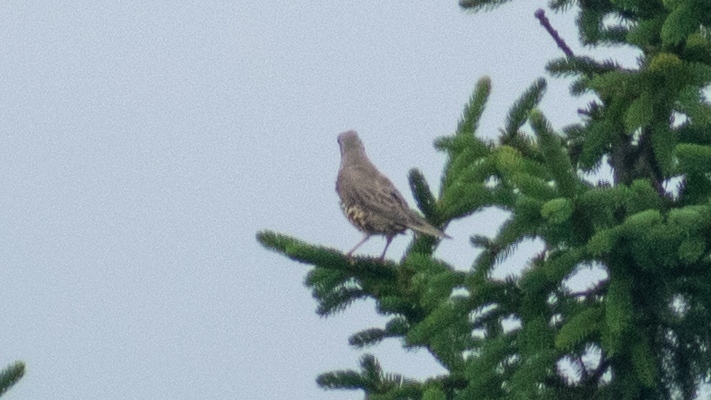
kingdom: Animalia
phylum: Chordata
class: Aves
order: Passeriformes
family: Turdidae
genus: Turdus
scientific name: Turdus pilaris
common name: Fieldfare
